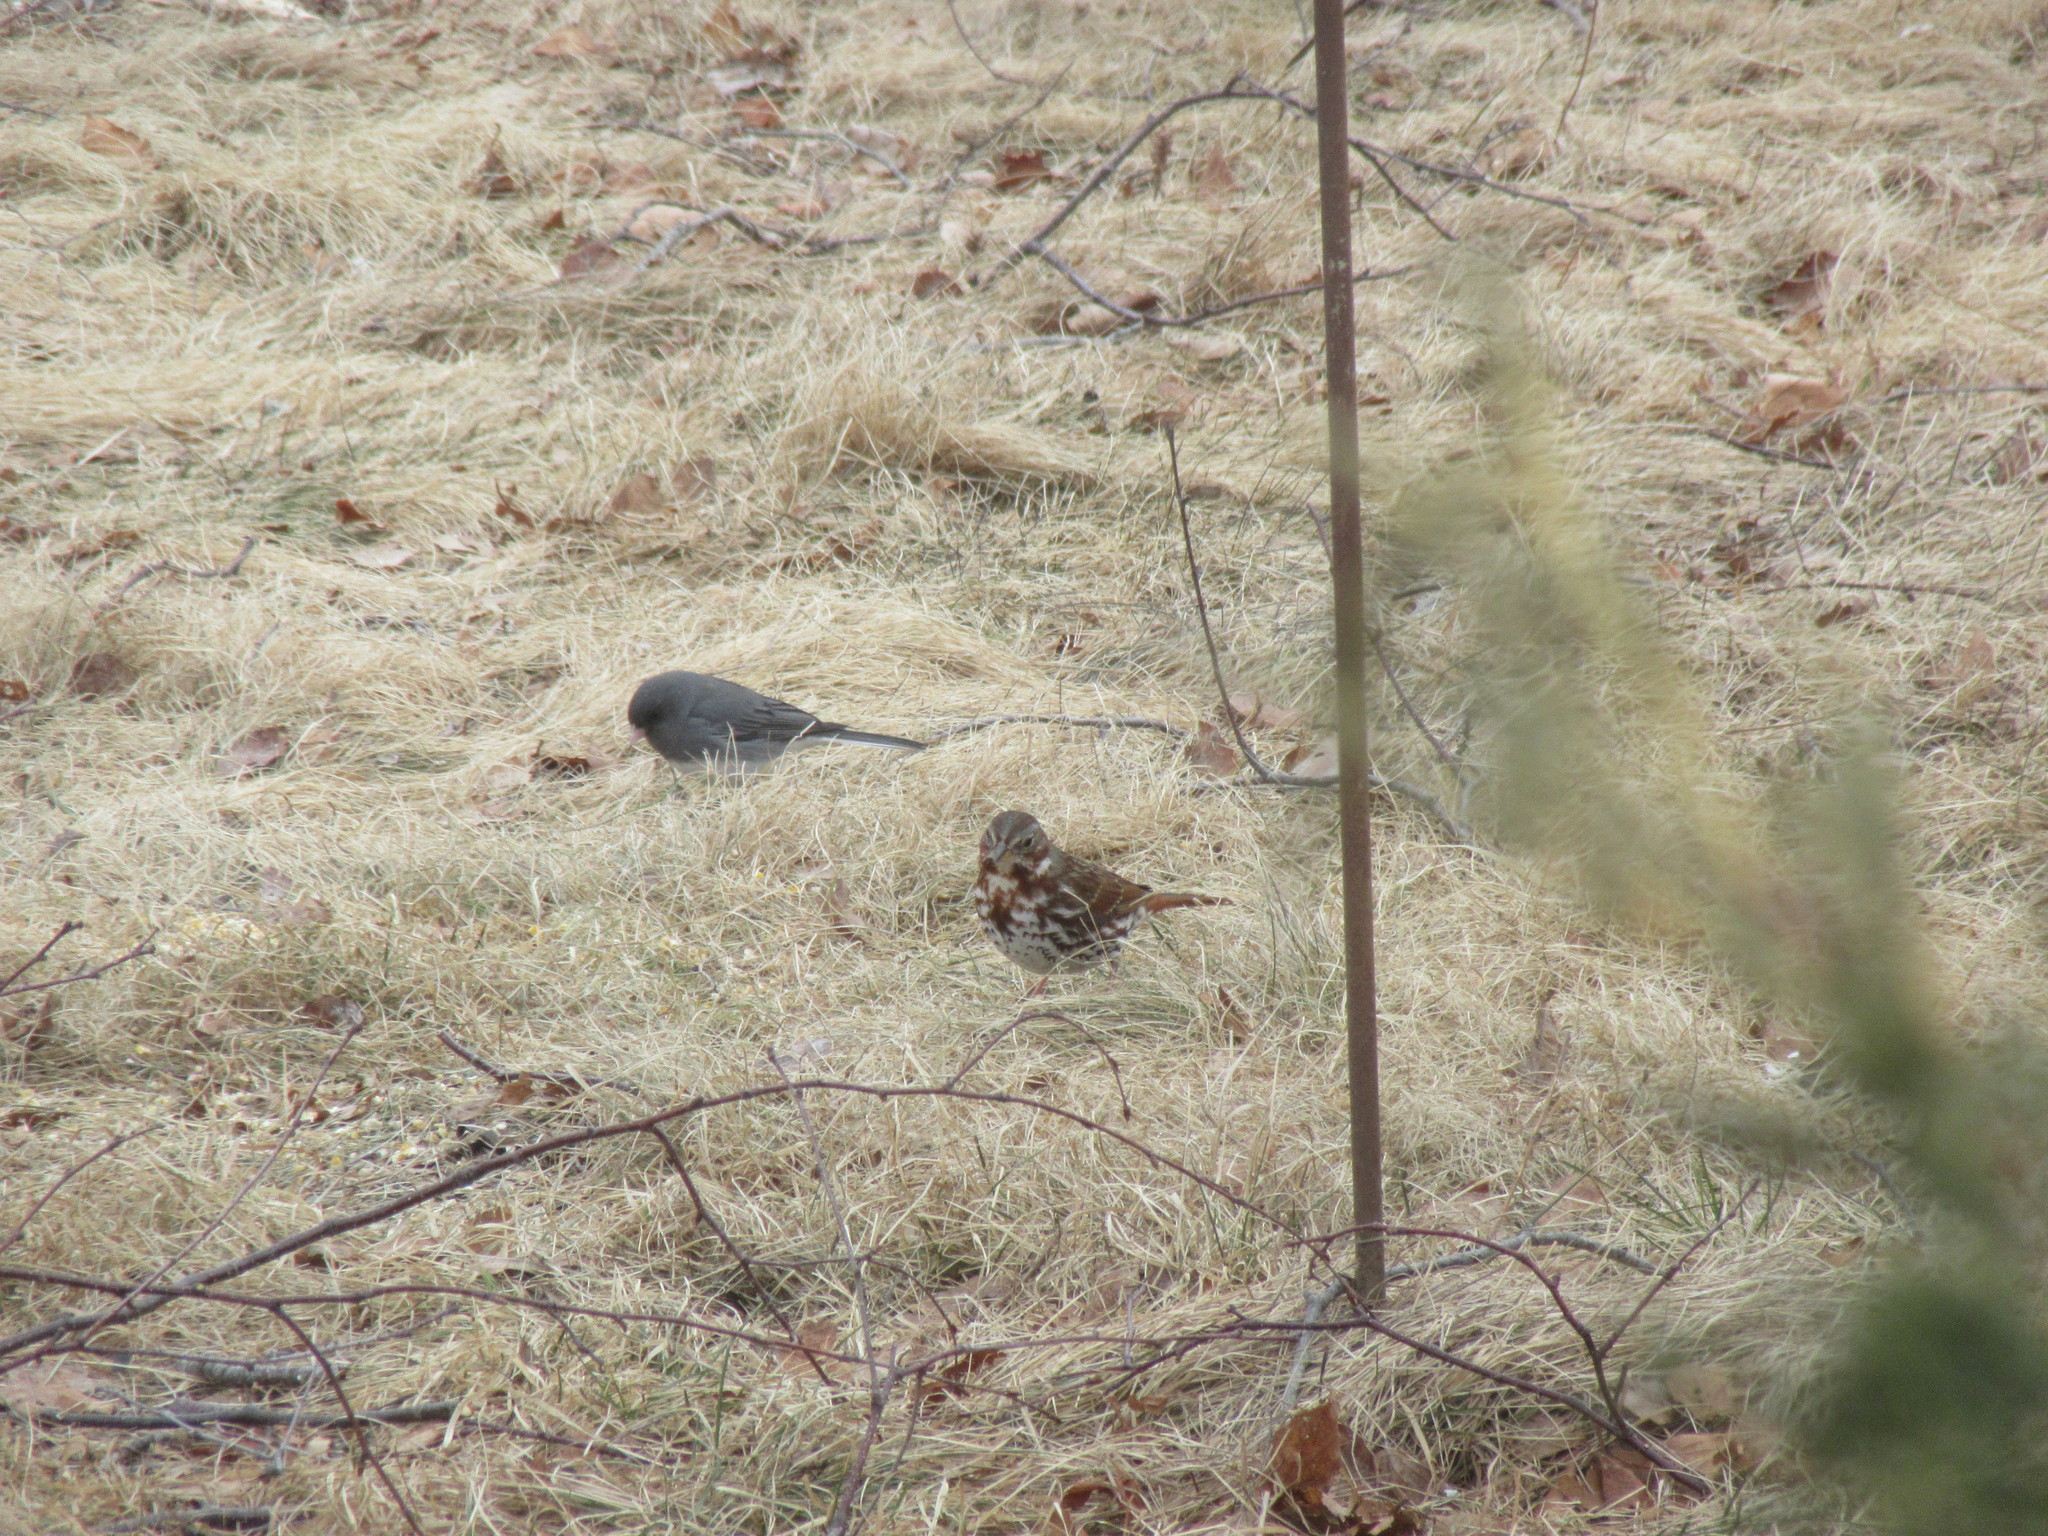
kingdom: Animalia
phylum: Chordata
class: Aves
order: Passeriformes
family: Passerellidae
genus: Passerella
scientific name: Passerella iliaca
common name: Fox sparrow
